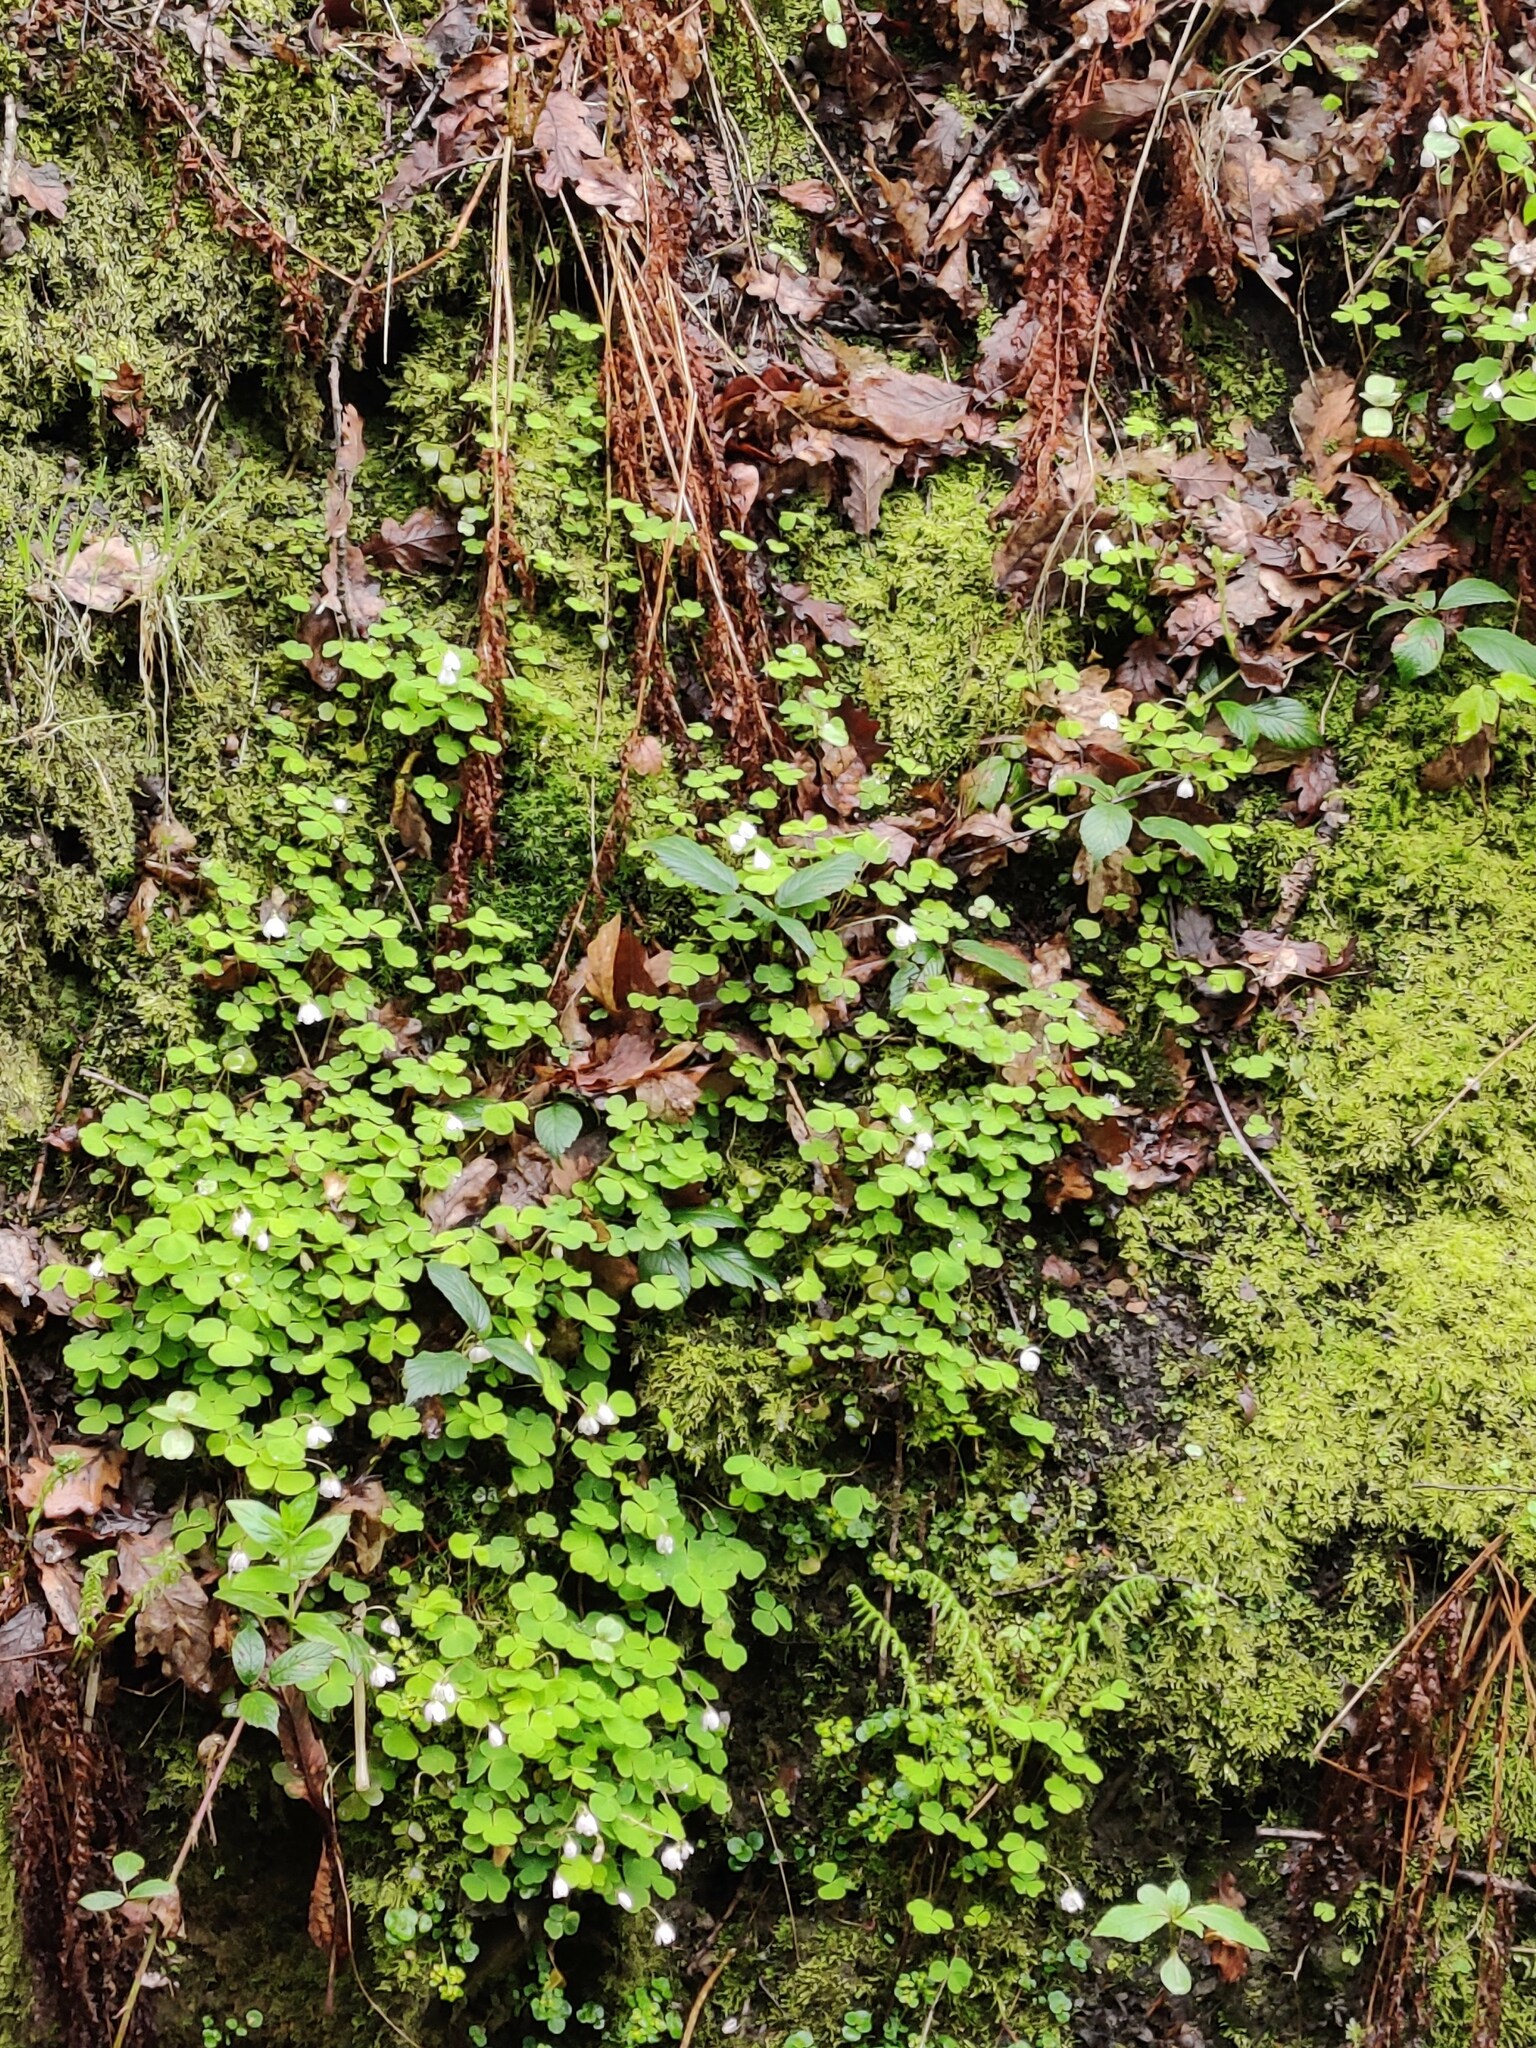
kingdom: Plantae
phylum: Tracheophyta
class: Magnoliopsida
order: Oxalidales
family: Oxalidaceae
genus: Oxalis
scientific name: Oxalis acetosella
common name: Wood-sorrel
